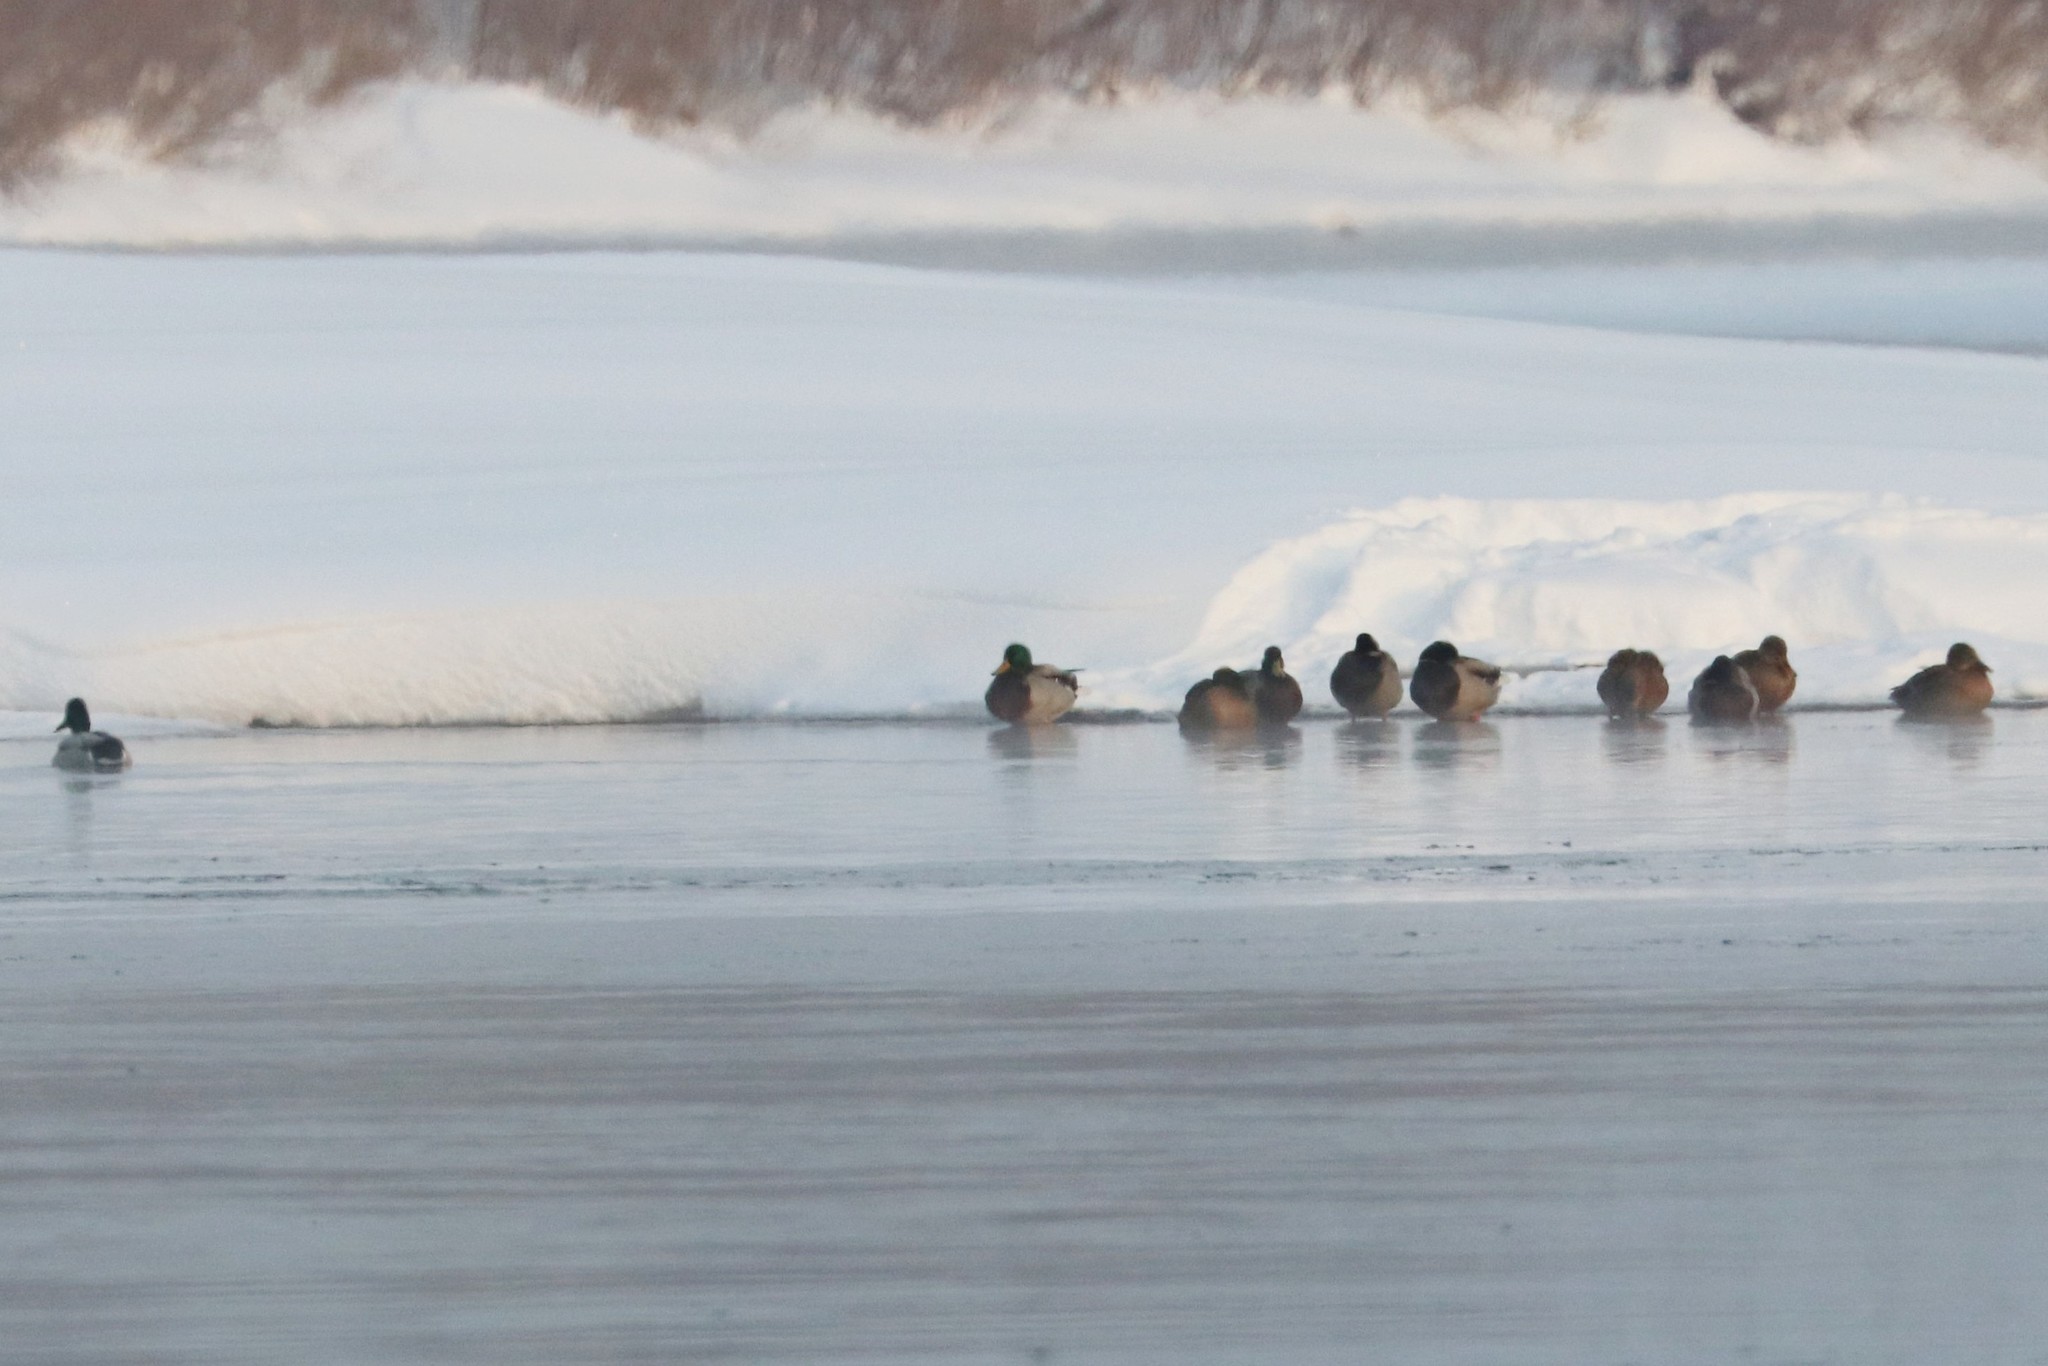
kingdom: Animalia
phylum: Chordata
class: Aves
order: Anseriformes
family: Anatidae
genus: Anas
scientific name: Anas platyrhynchos
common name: Mallard
